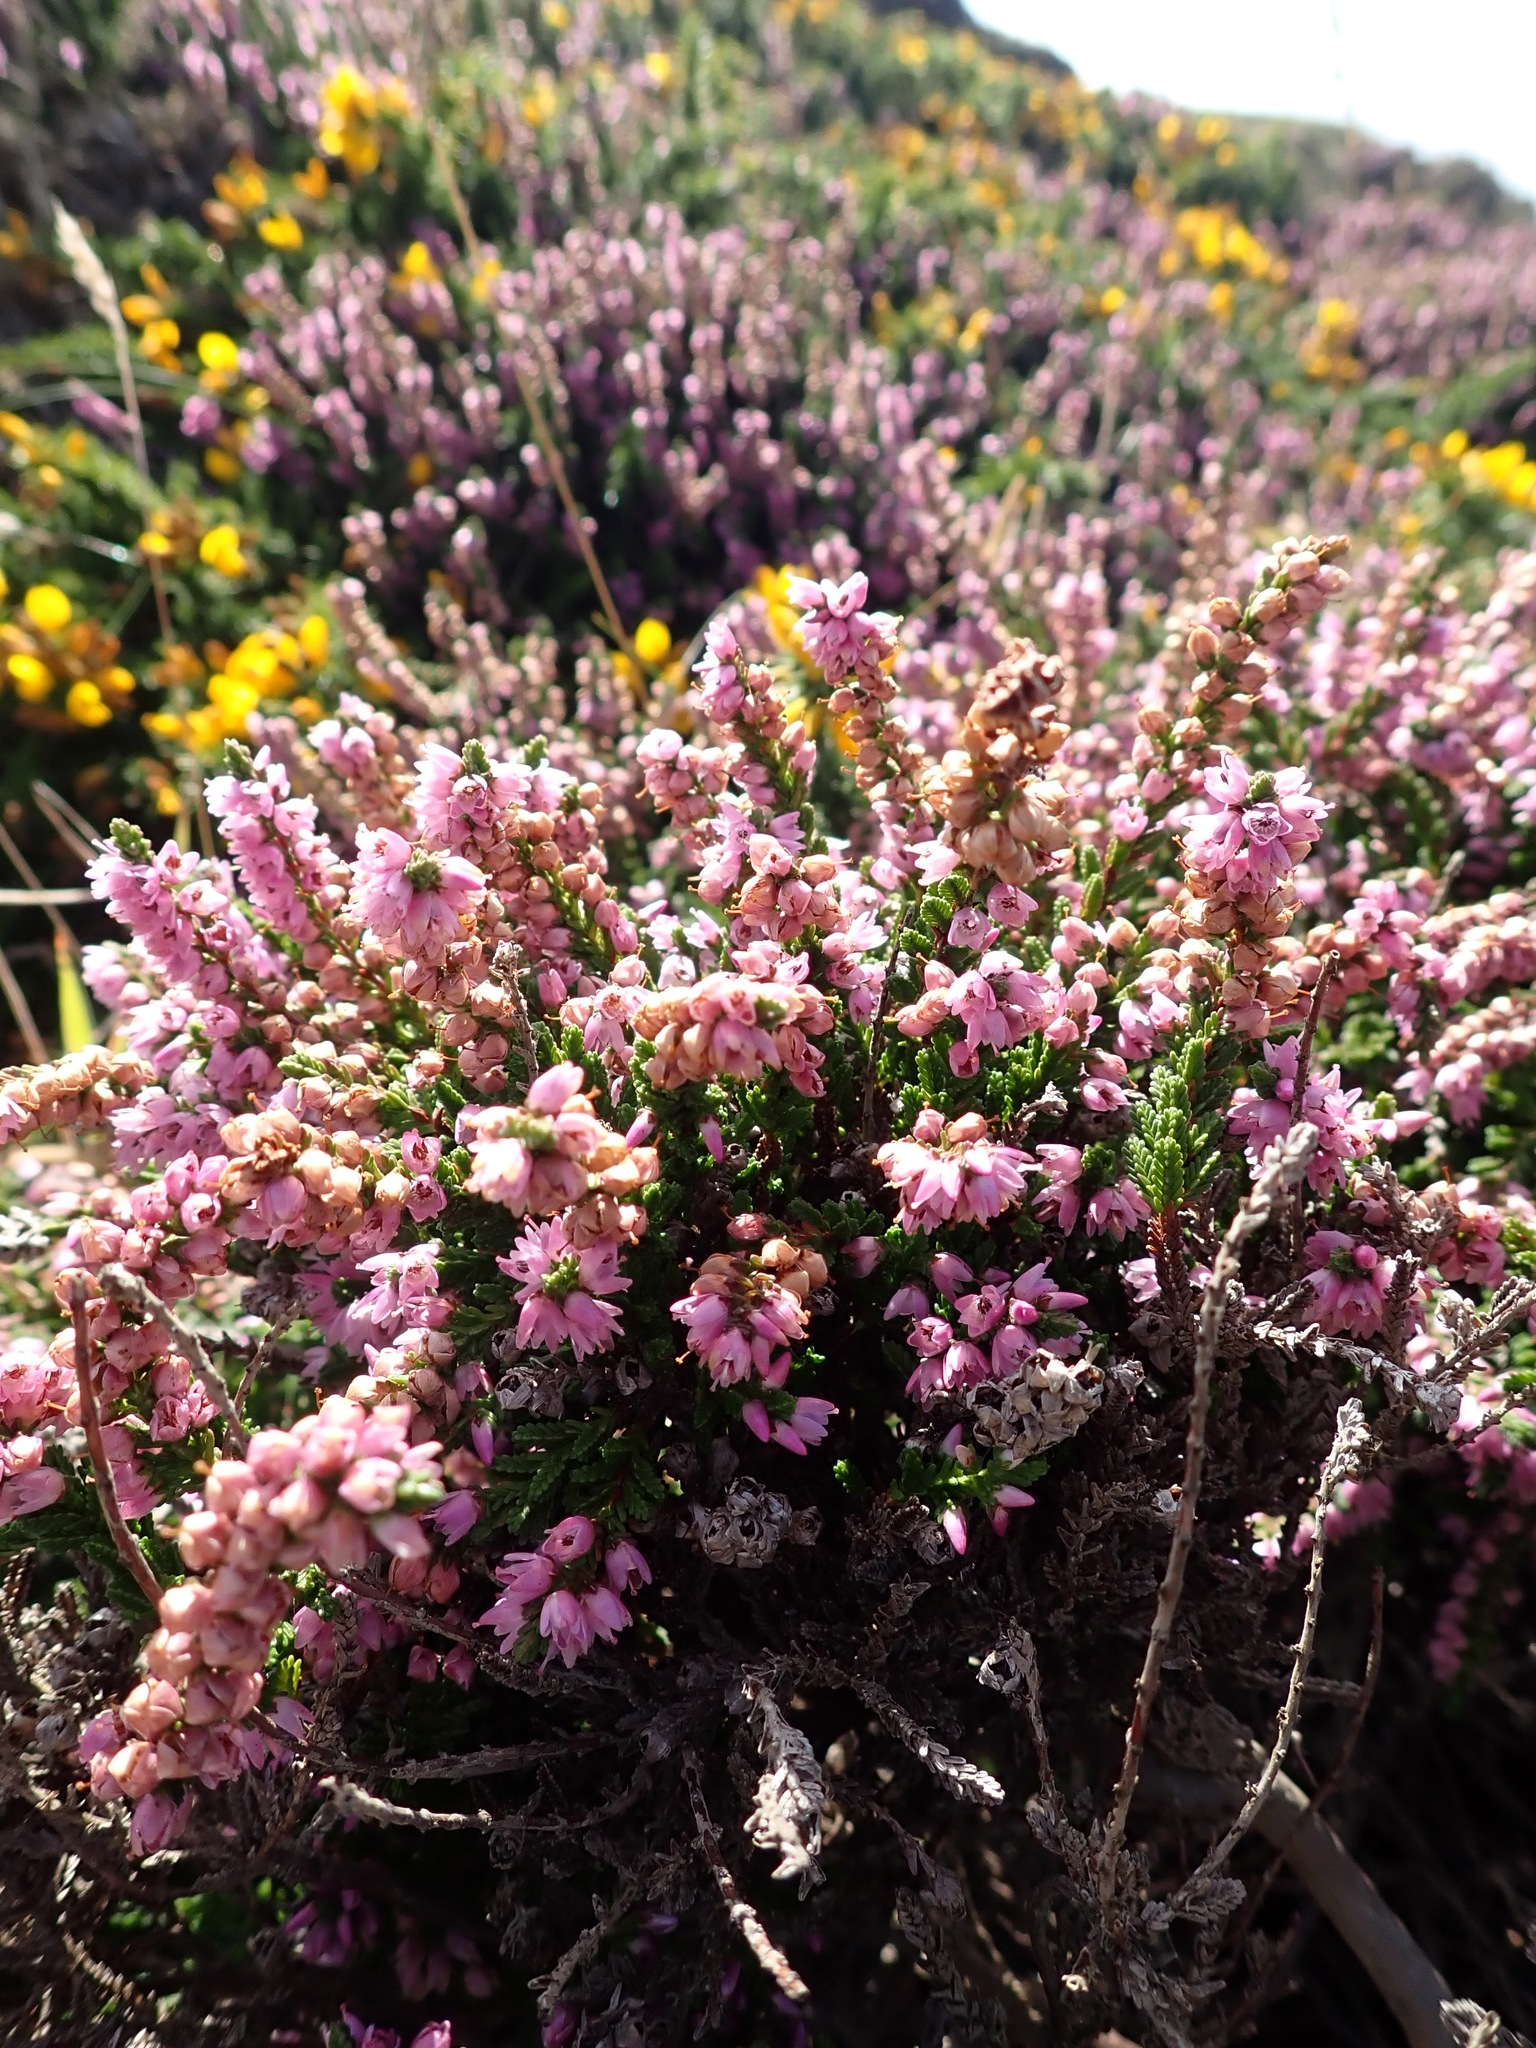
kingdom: Plantae
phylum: Tracheophyta
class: Magnoliopsida
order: Ericales
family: Ericaceae
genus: Calluna
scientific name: Calluna vulgaris
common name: Heather
